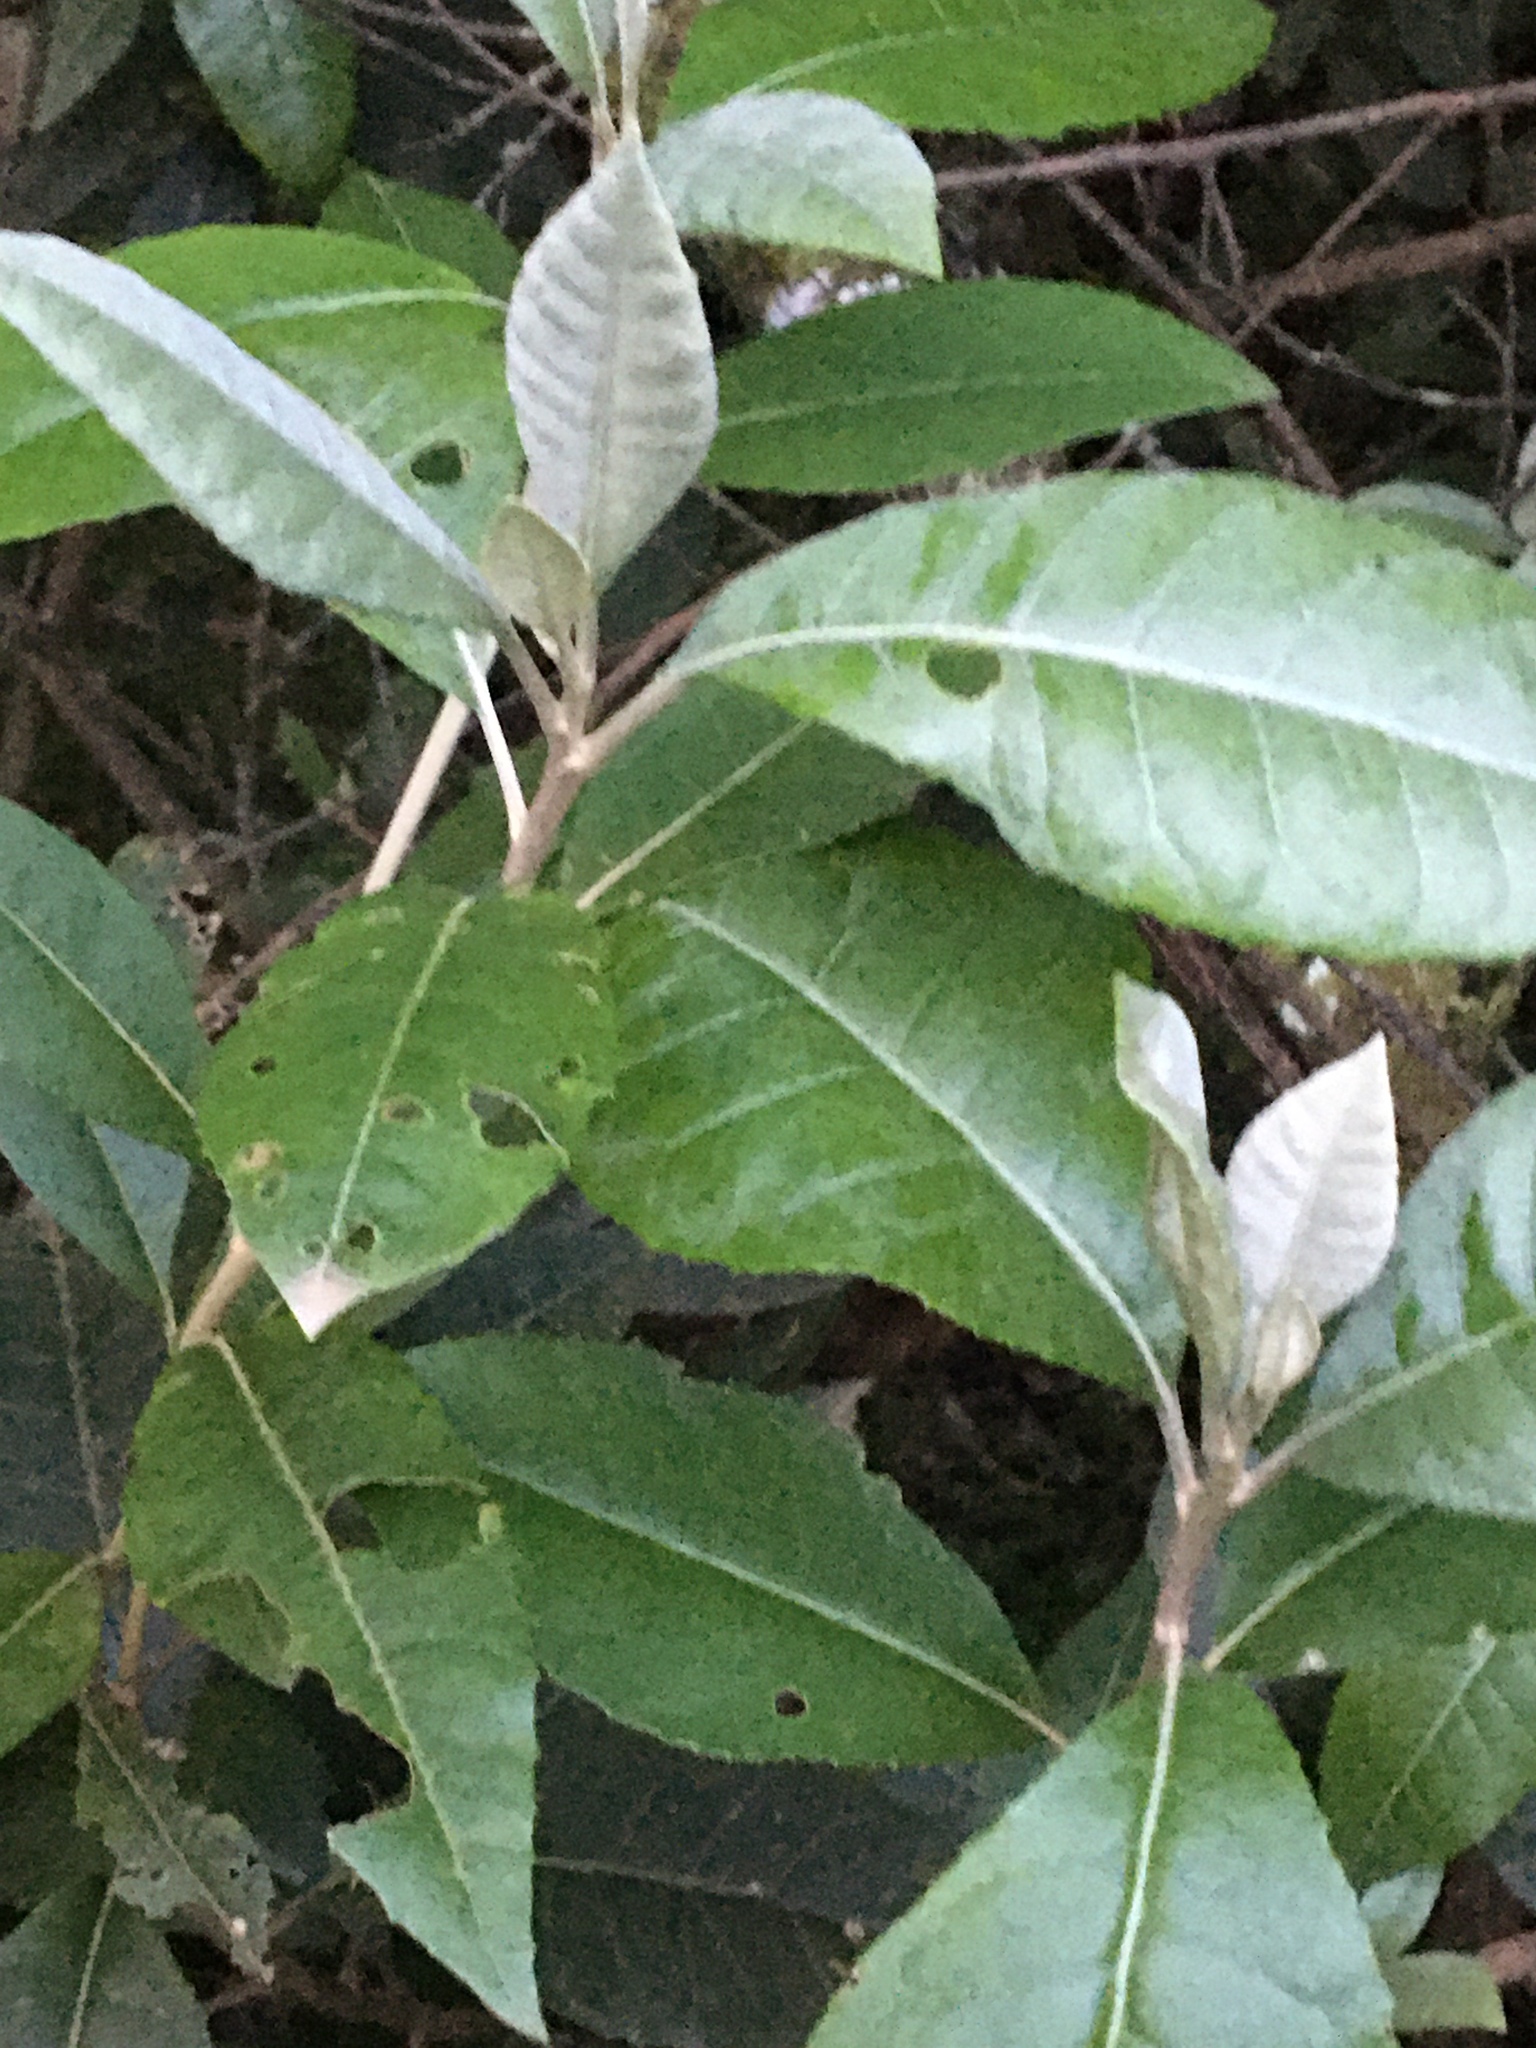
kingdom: Plantae
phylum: Tracheophyta
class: Magnoliopsida
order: Asterales
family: Asteraceae
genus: Olearia
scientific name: Olearia argophylla
